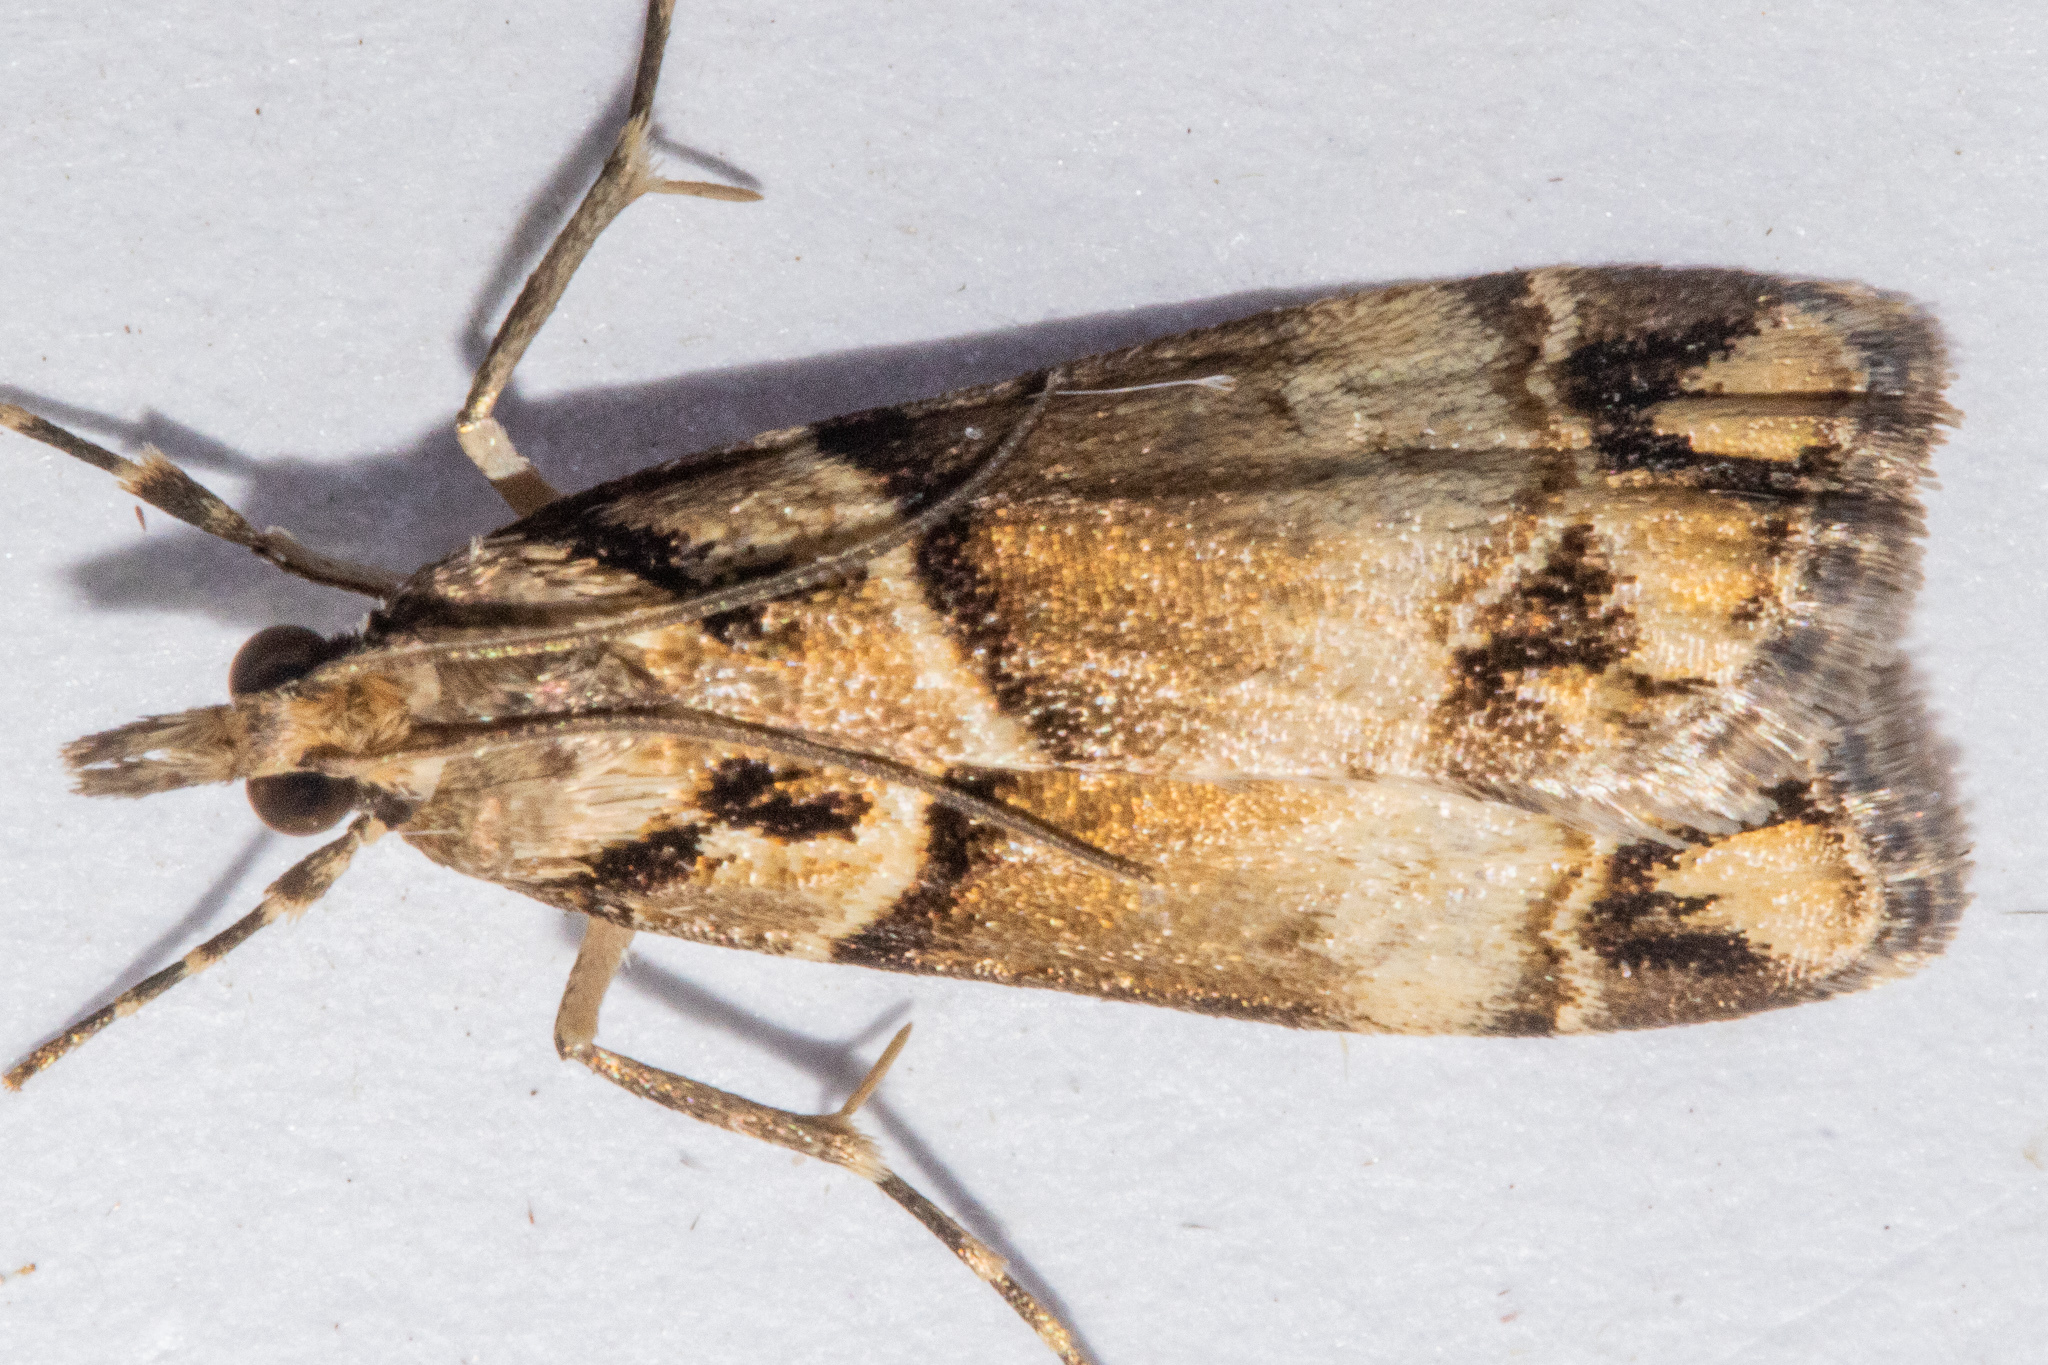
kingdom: Animalia
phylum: Arthropoda
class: Insecta
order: Lepidoptera
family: Crambidae
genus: Eudonia
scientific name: Eudonia periphanes
